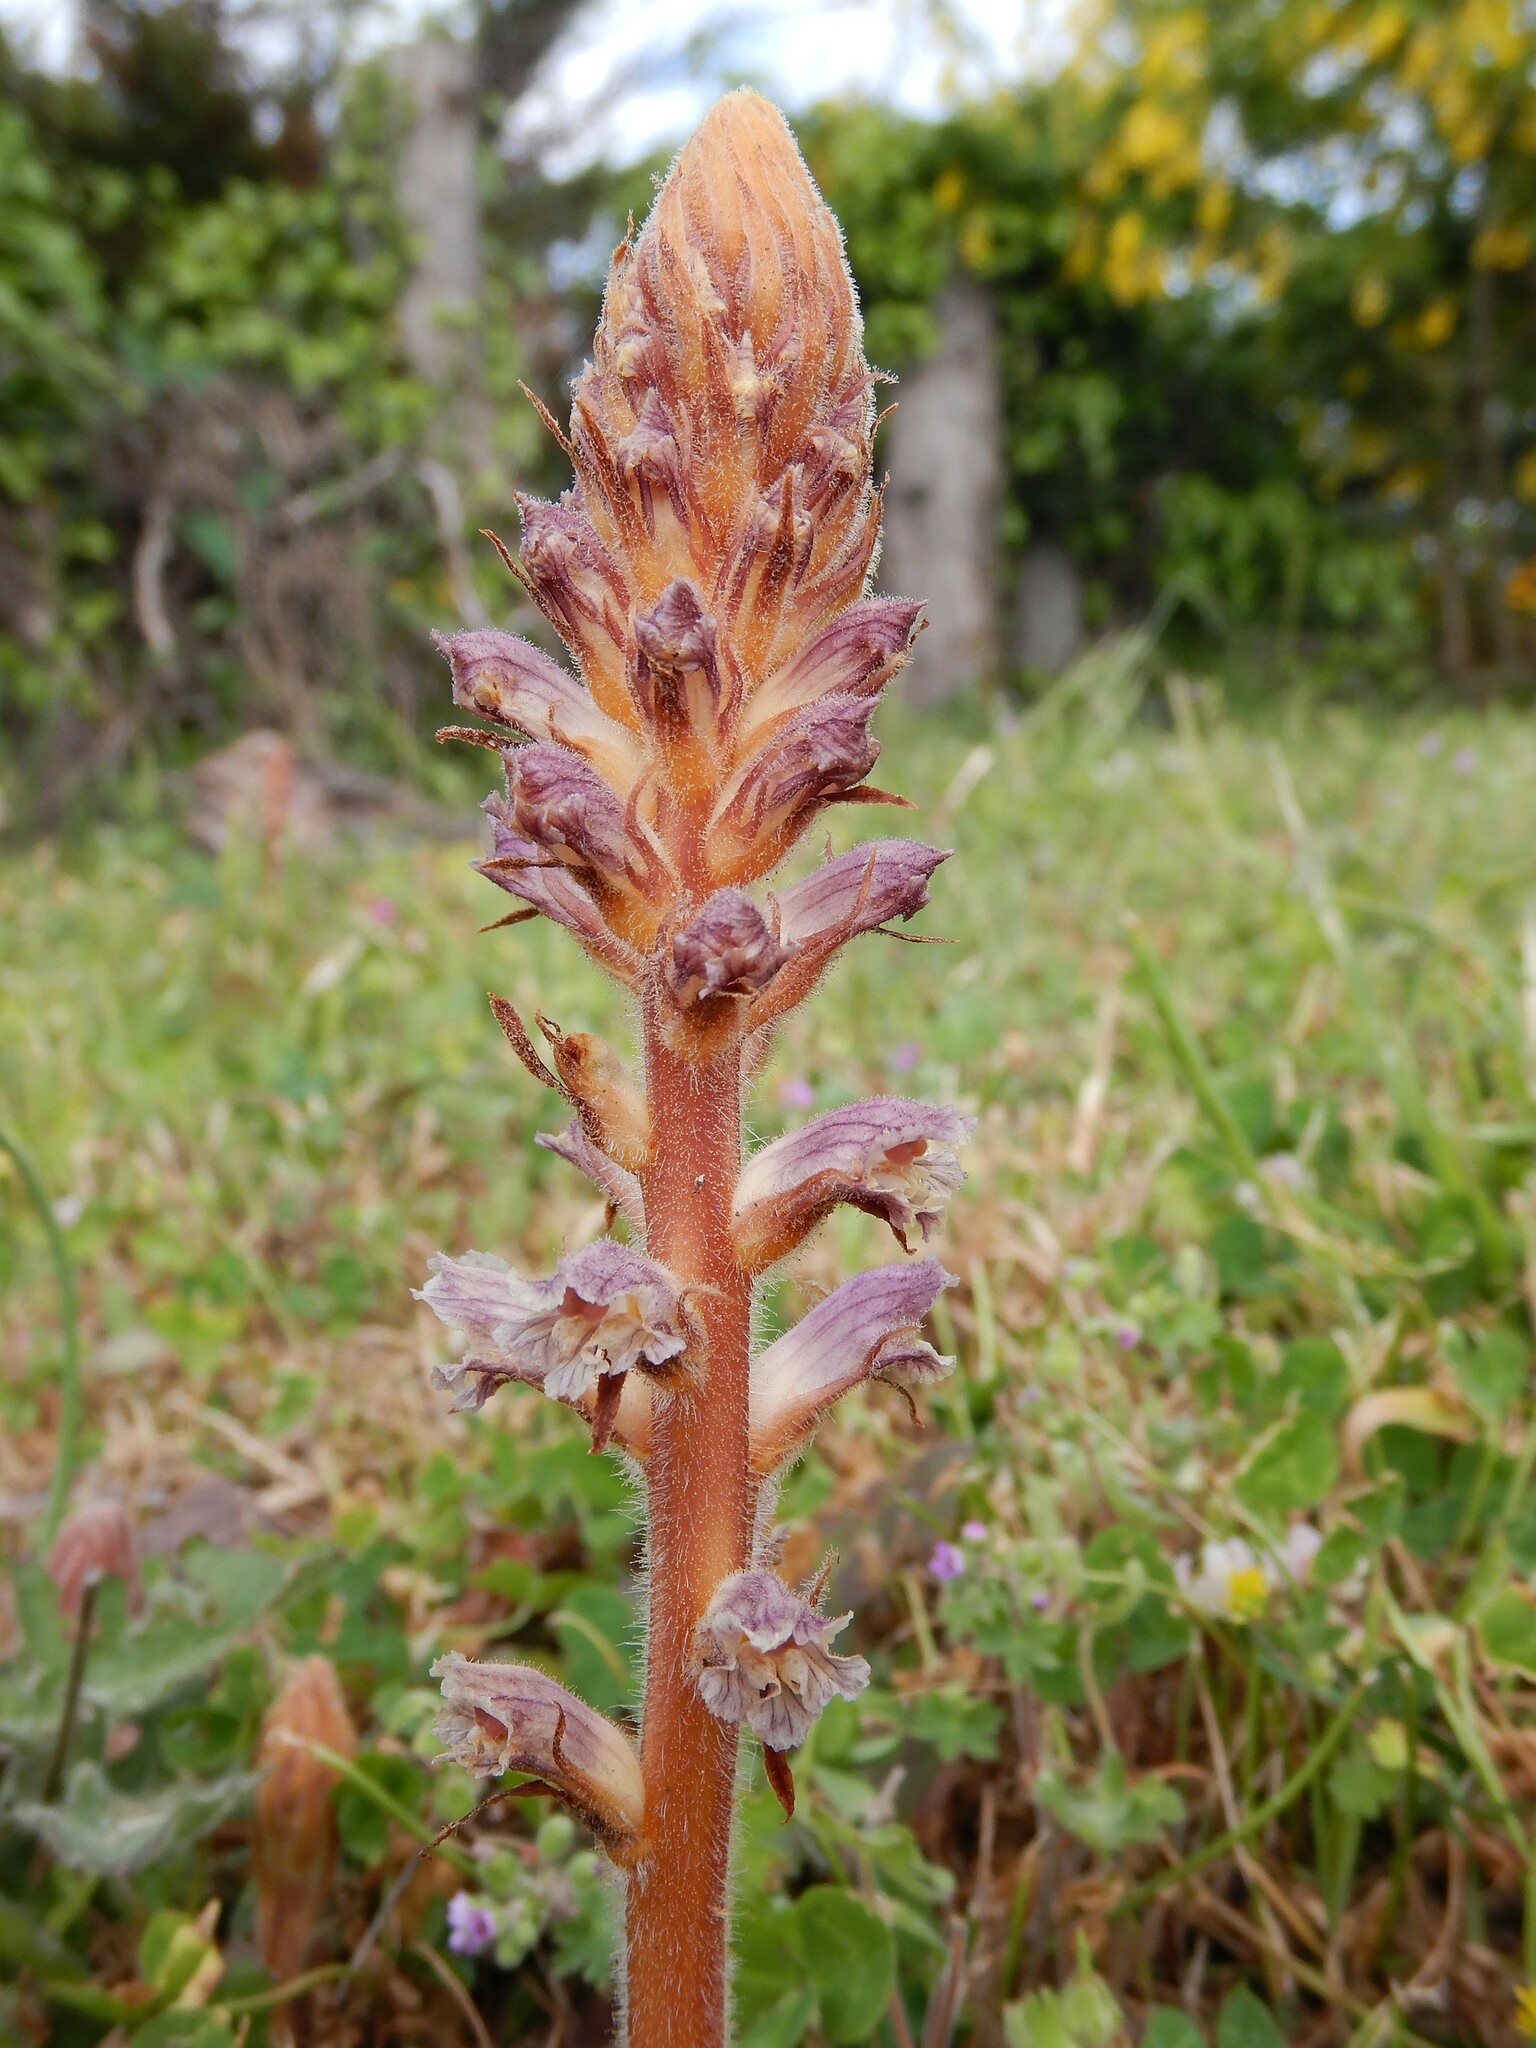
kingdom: Plantae
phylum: Tracheophyta
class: Magnoliopsida
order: Lamiales
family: Orobanchaceae
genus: Orobanche
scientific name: Orobanche minor
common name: Common broomrape
